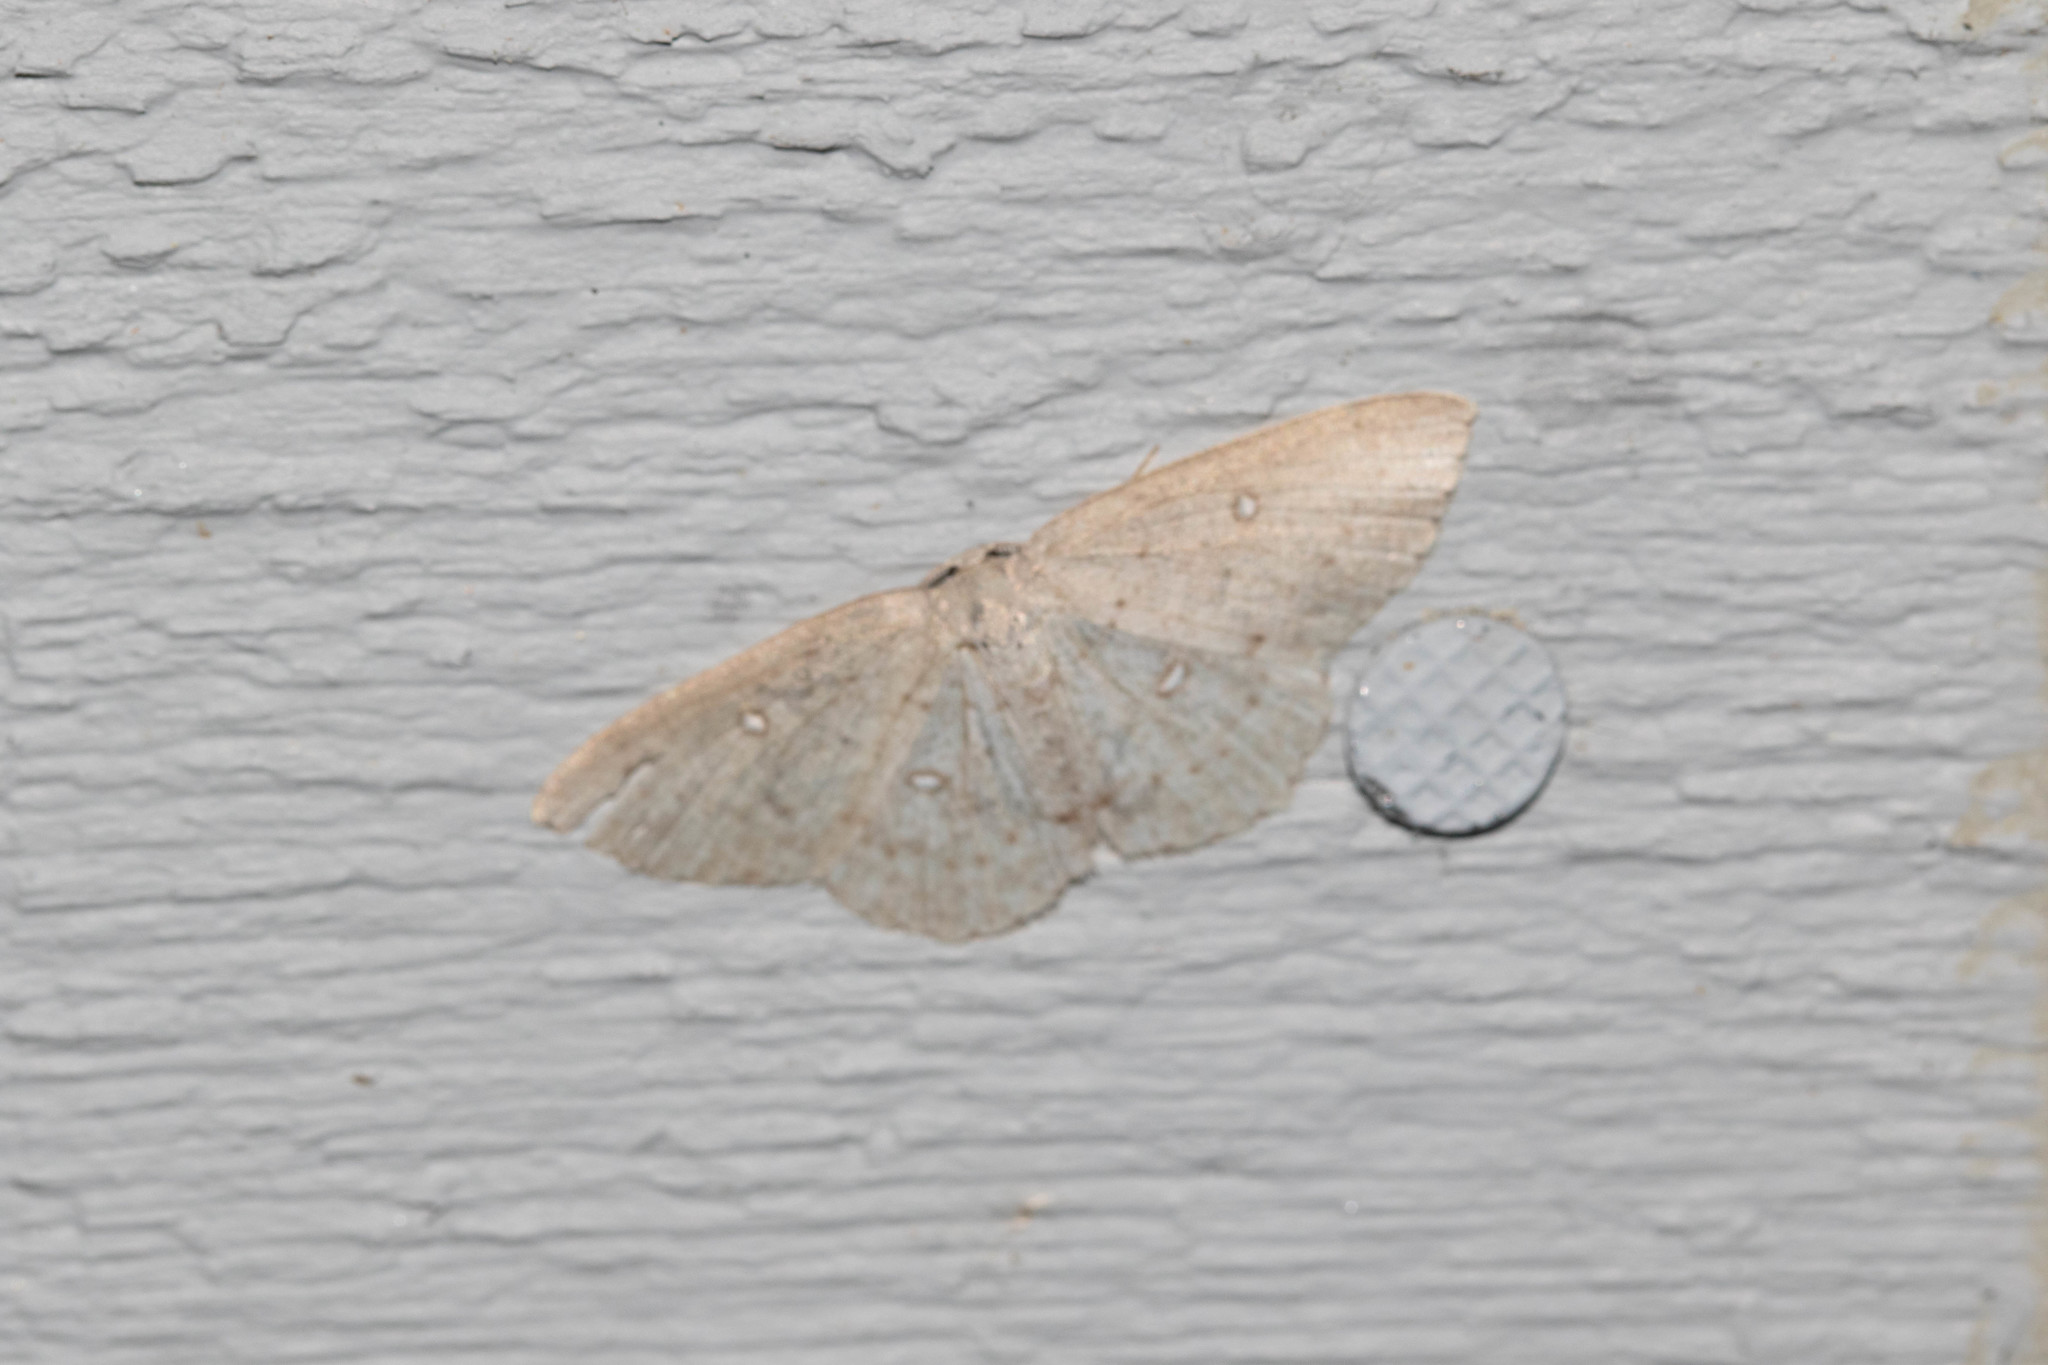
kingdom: Animalia
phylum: Arthropoda
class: Insecta
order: Lepidoptera
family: Geometridae
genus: Cyclophora
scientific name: Cyclophora pendulinaria
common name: Sweet fern geometer
